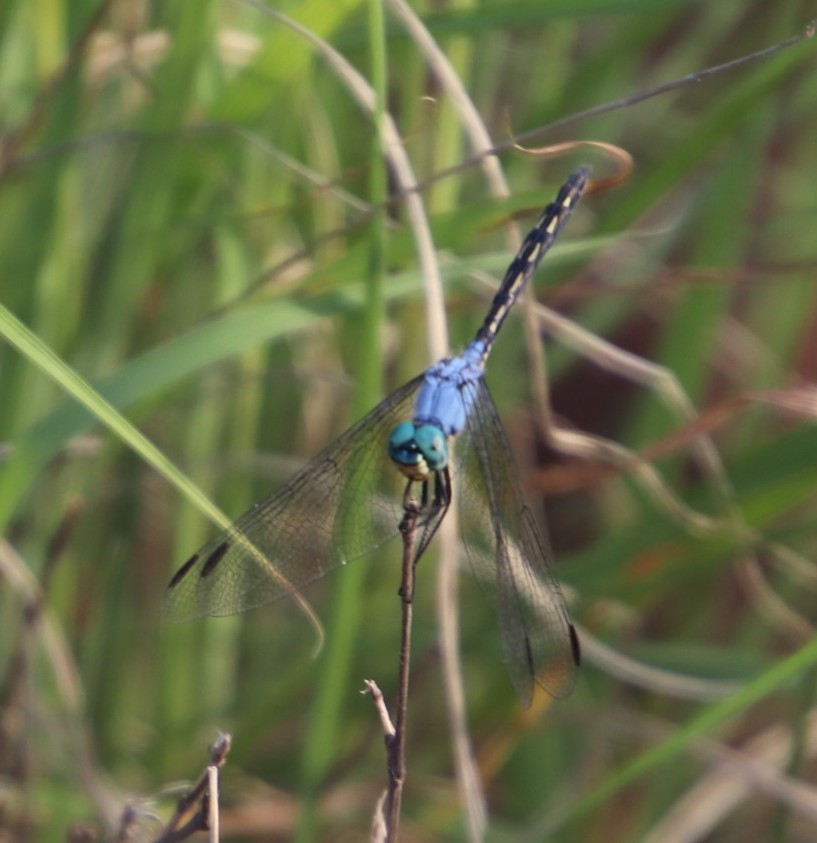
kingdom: Animalia
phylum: Arthropoda
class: Insecta
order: Odonata
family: Libellulidae
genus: Trithemis
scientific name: Trithemis stictica
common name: Jaunty dropwing
